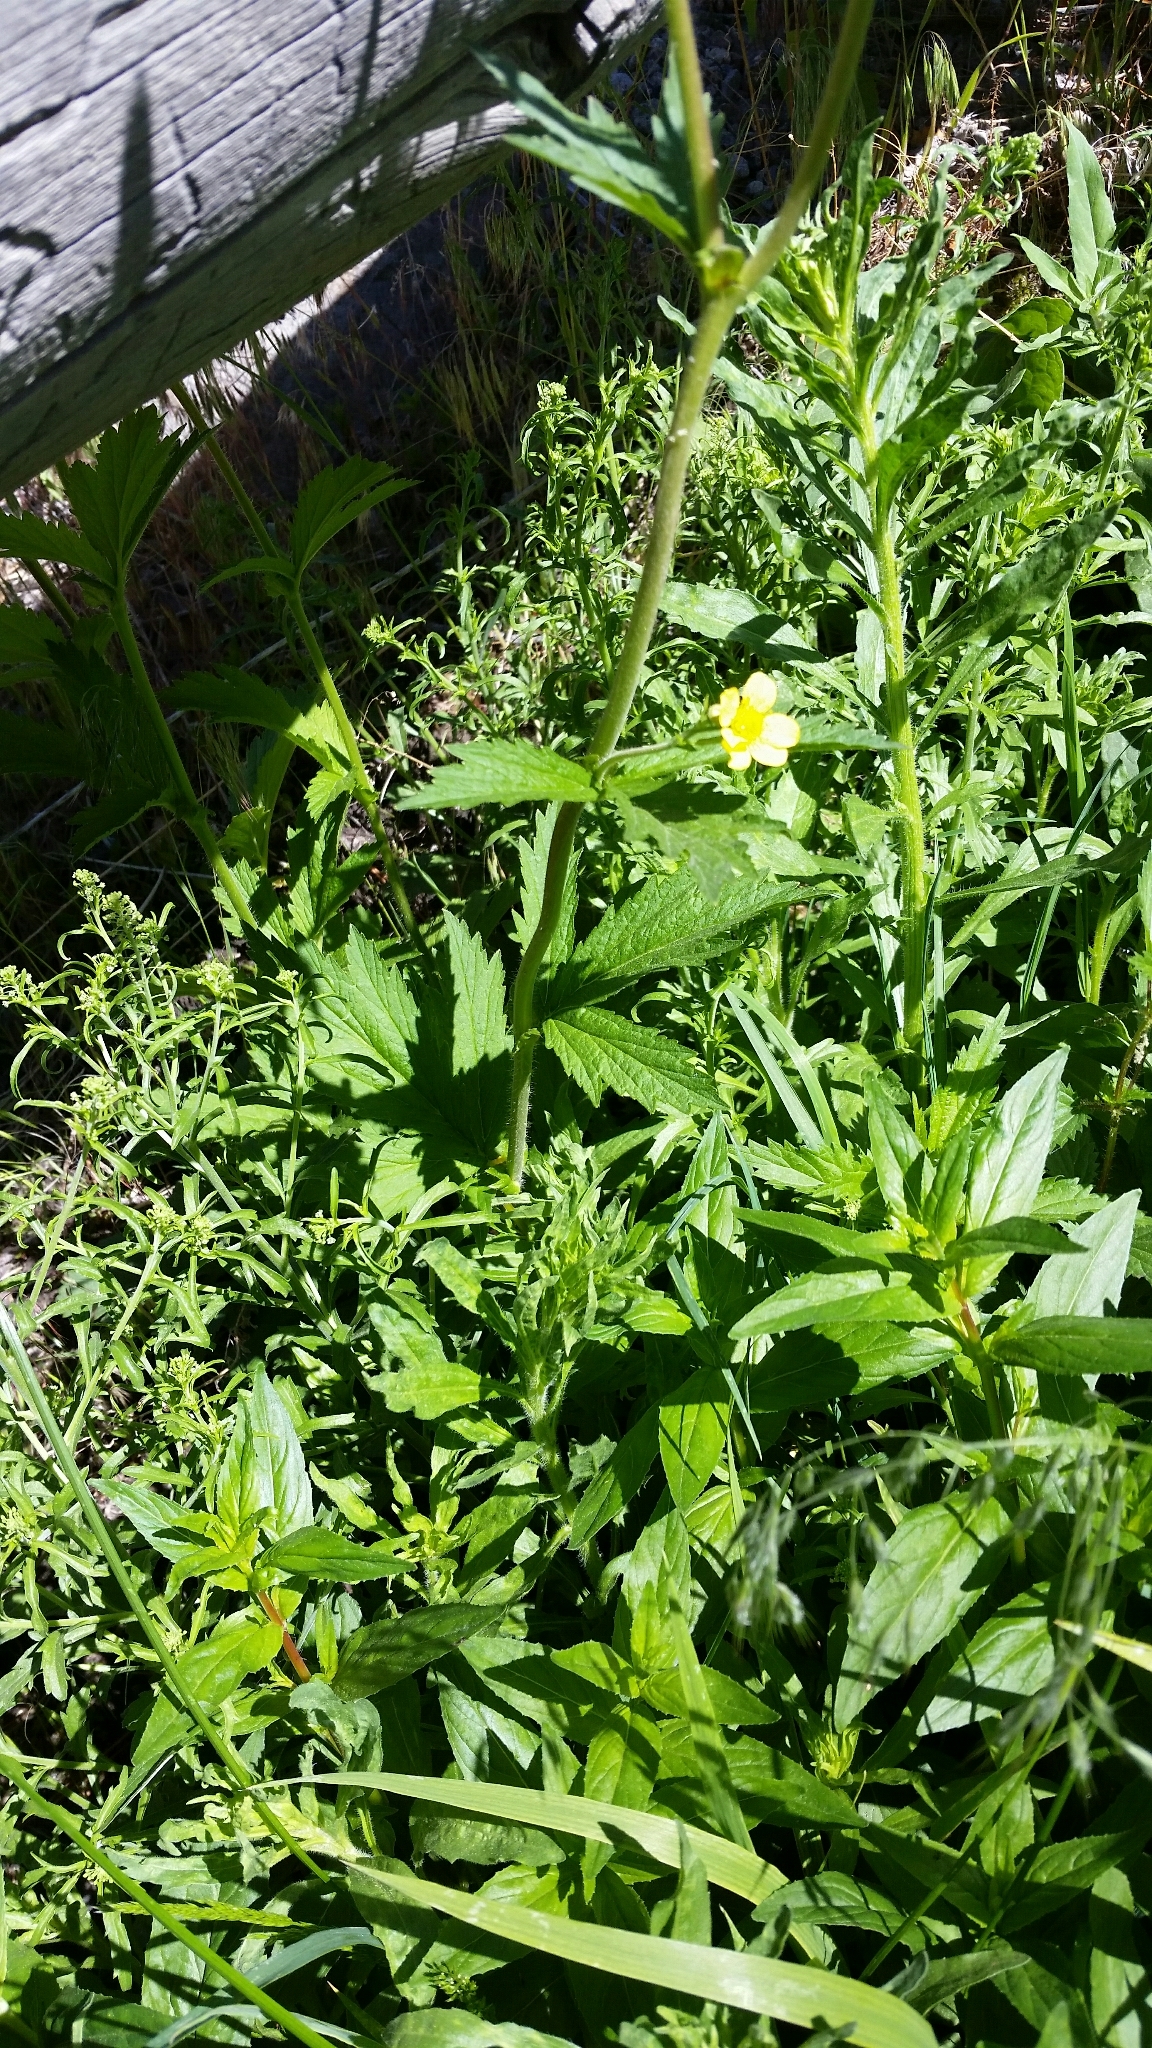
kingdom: Plantae
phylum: Tracheophyta
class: Magnoliopsida
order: Rosales
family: Rosaceae
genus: Geum
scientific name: Geum macrophyllum
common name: Large-leaved avens
